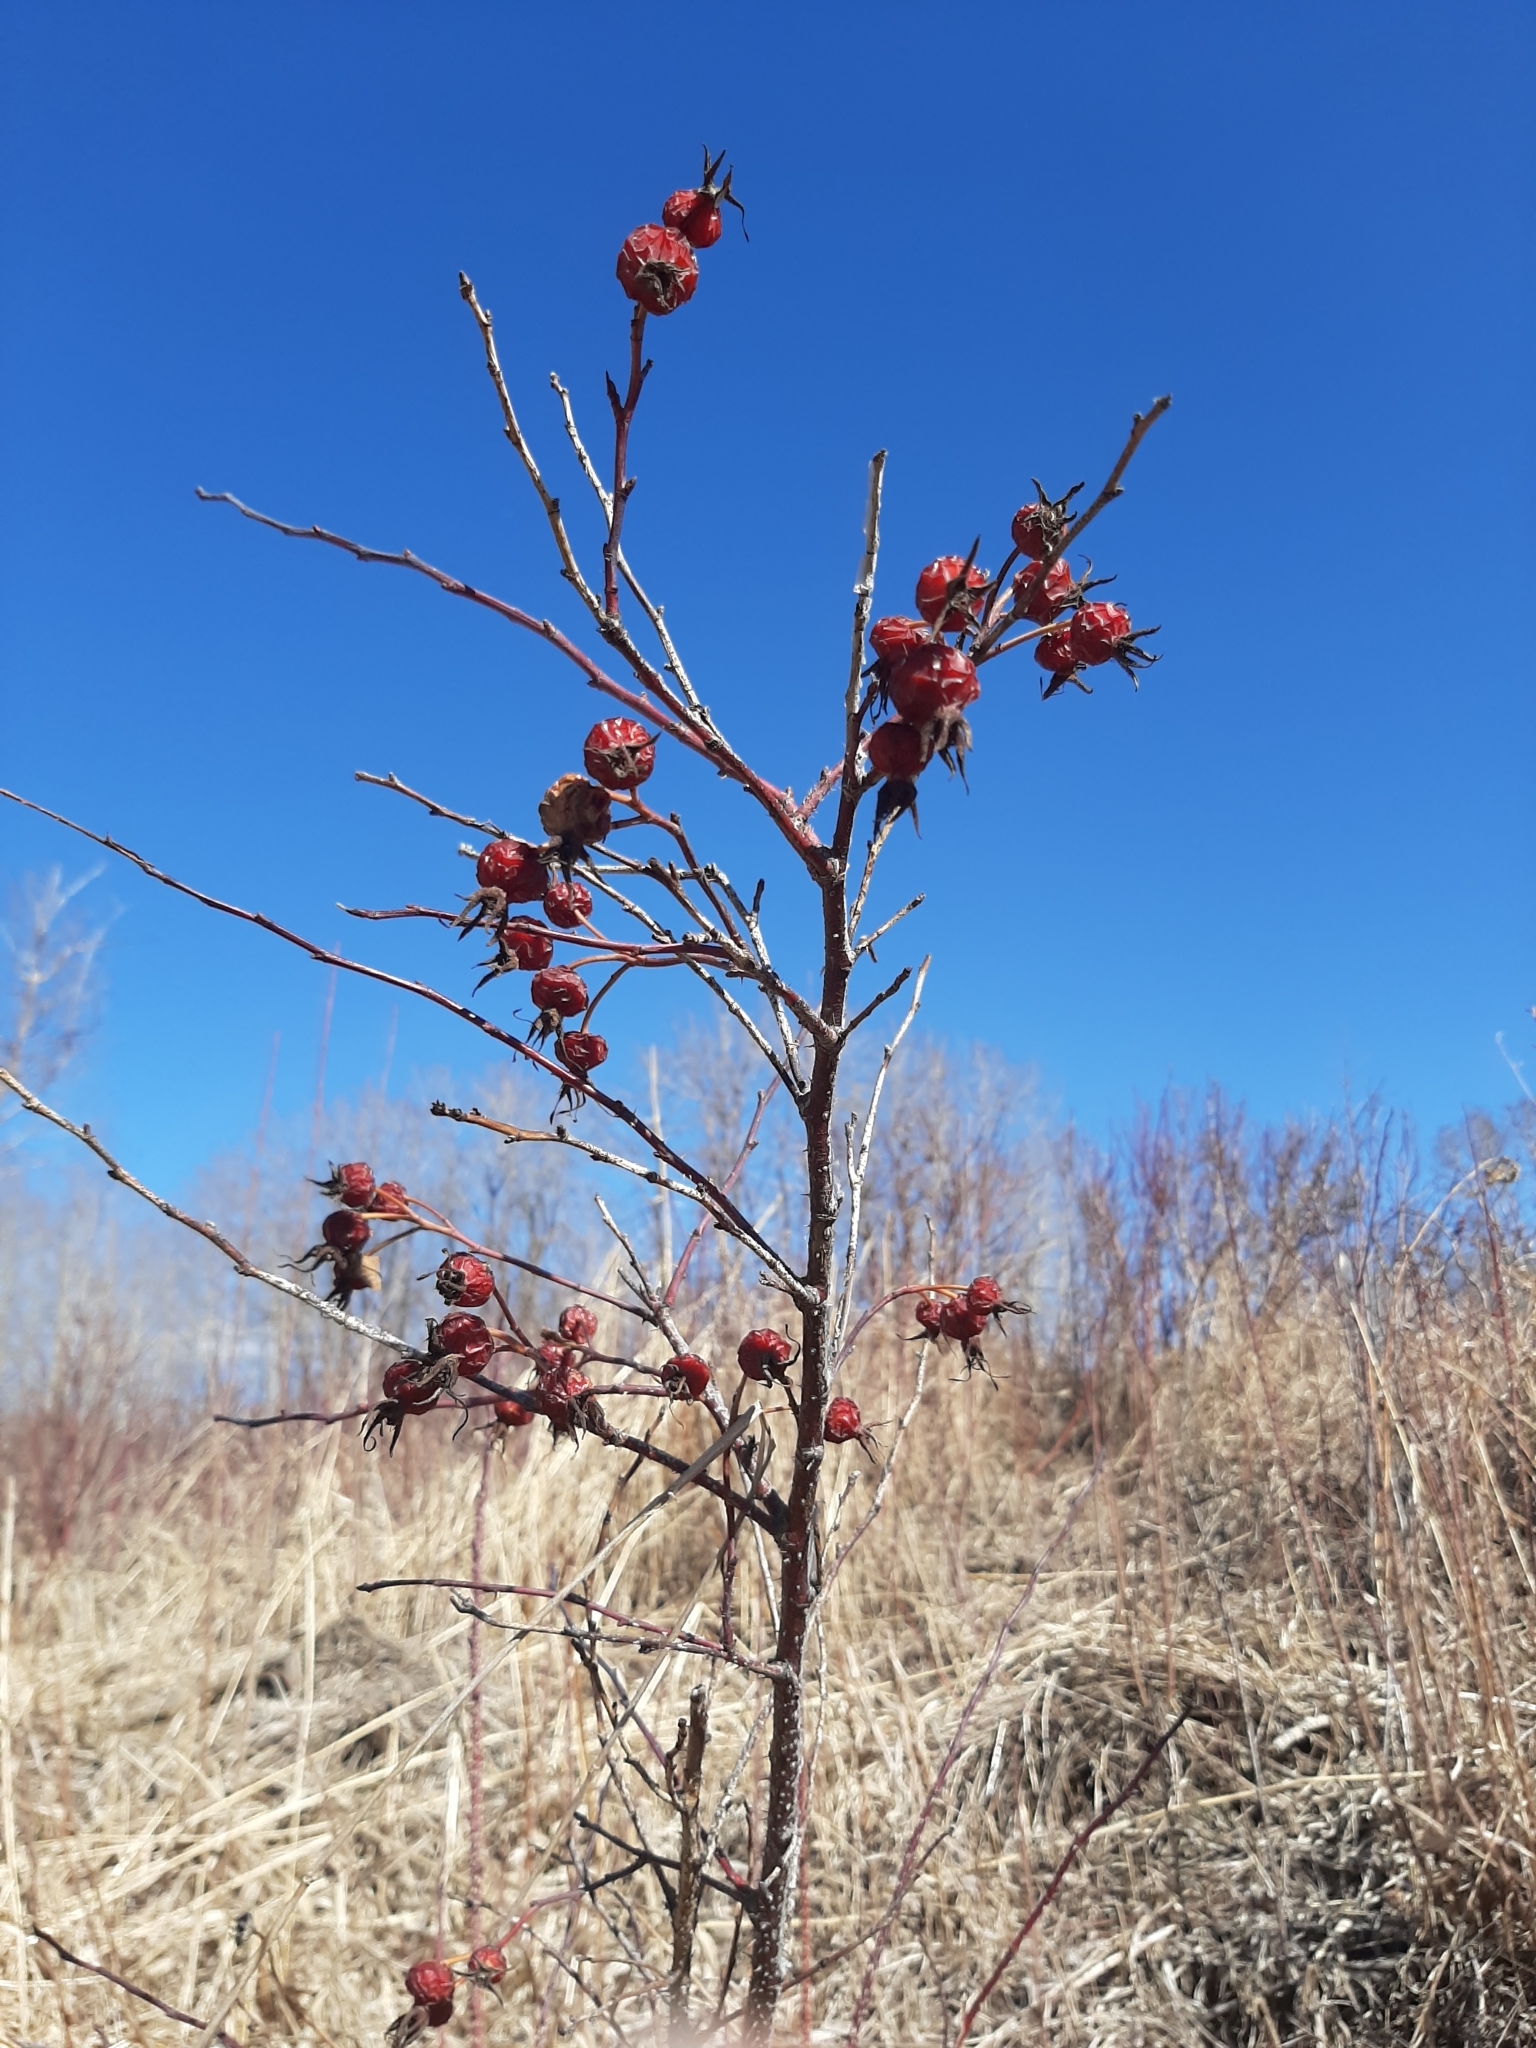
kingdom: Plantae
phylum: Tracheophyta
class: Magnoliopsida
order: Rosales
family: Rosaceae
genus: Rosa
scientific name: Rosa woodsii
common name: Woods's rose
